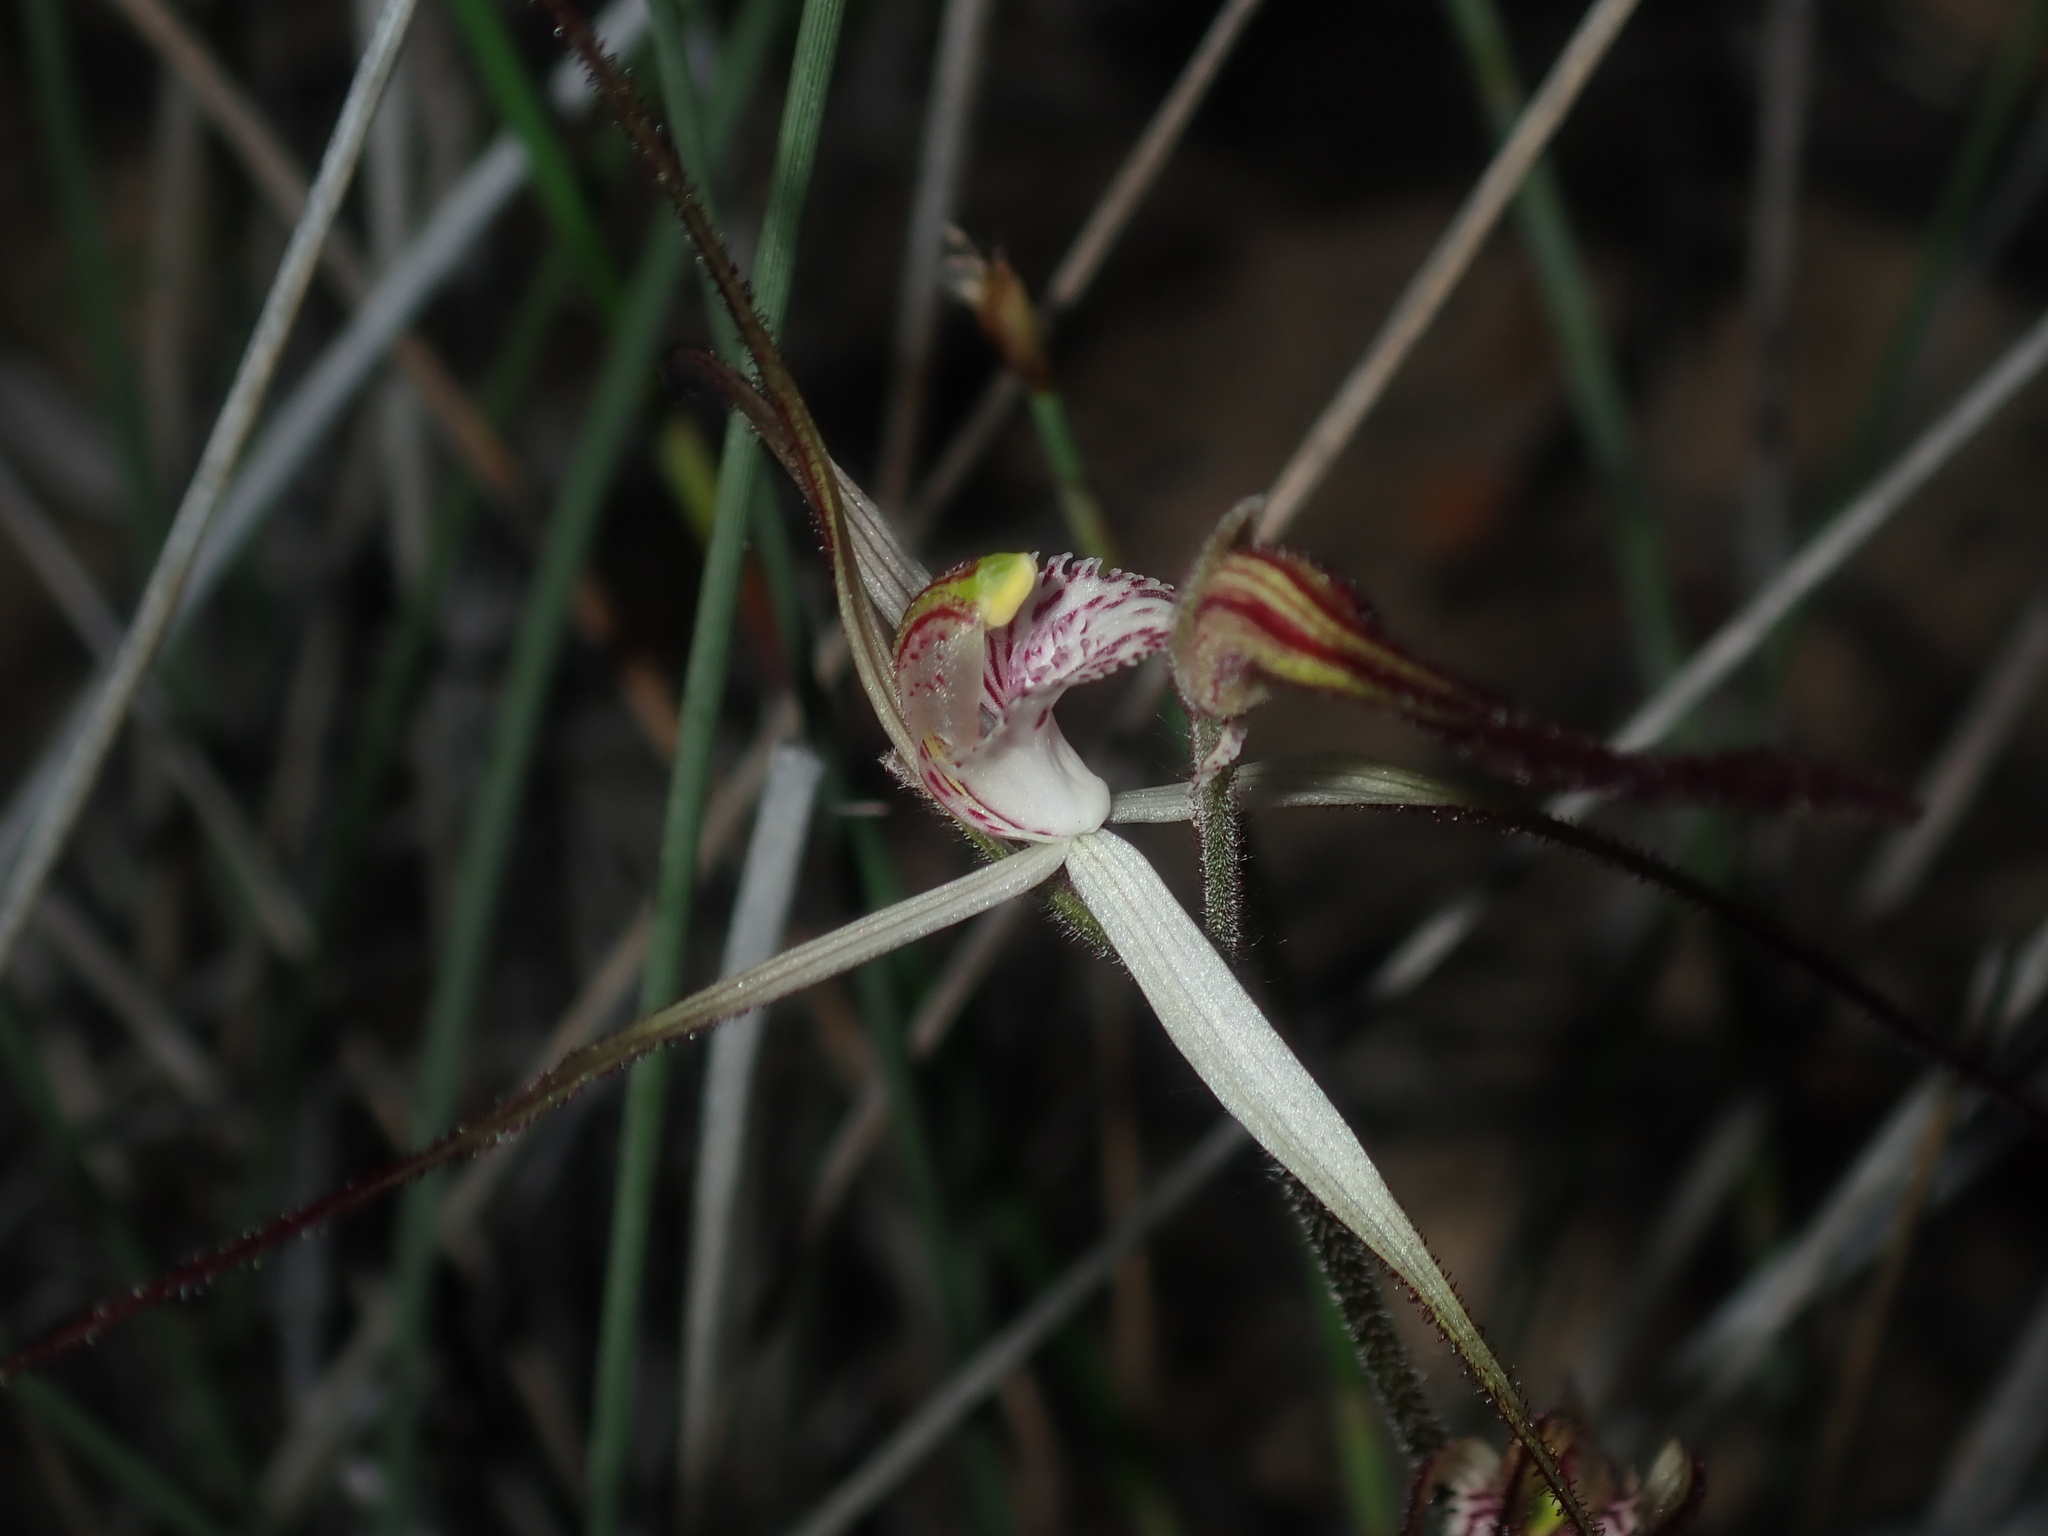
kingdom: Plantae
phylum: Tracheophyta
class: Liliopsida
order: Asparagales
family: Orchidaceae
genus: Caladenia
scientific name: Caladenia varians
